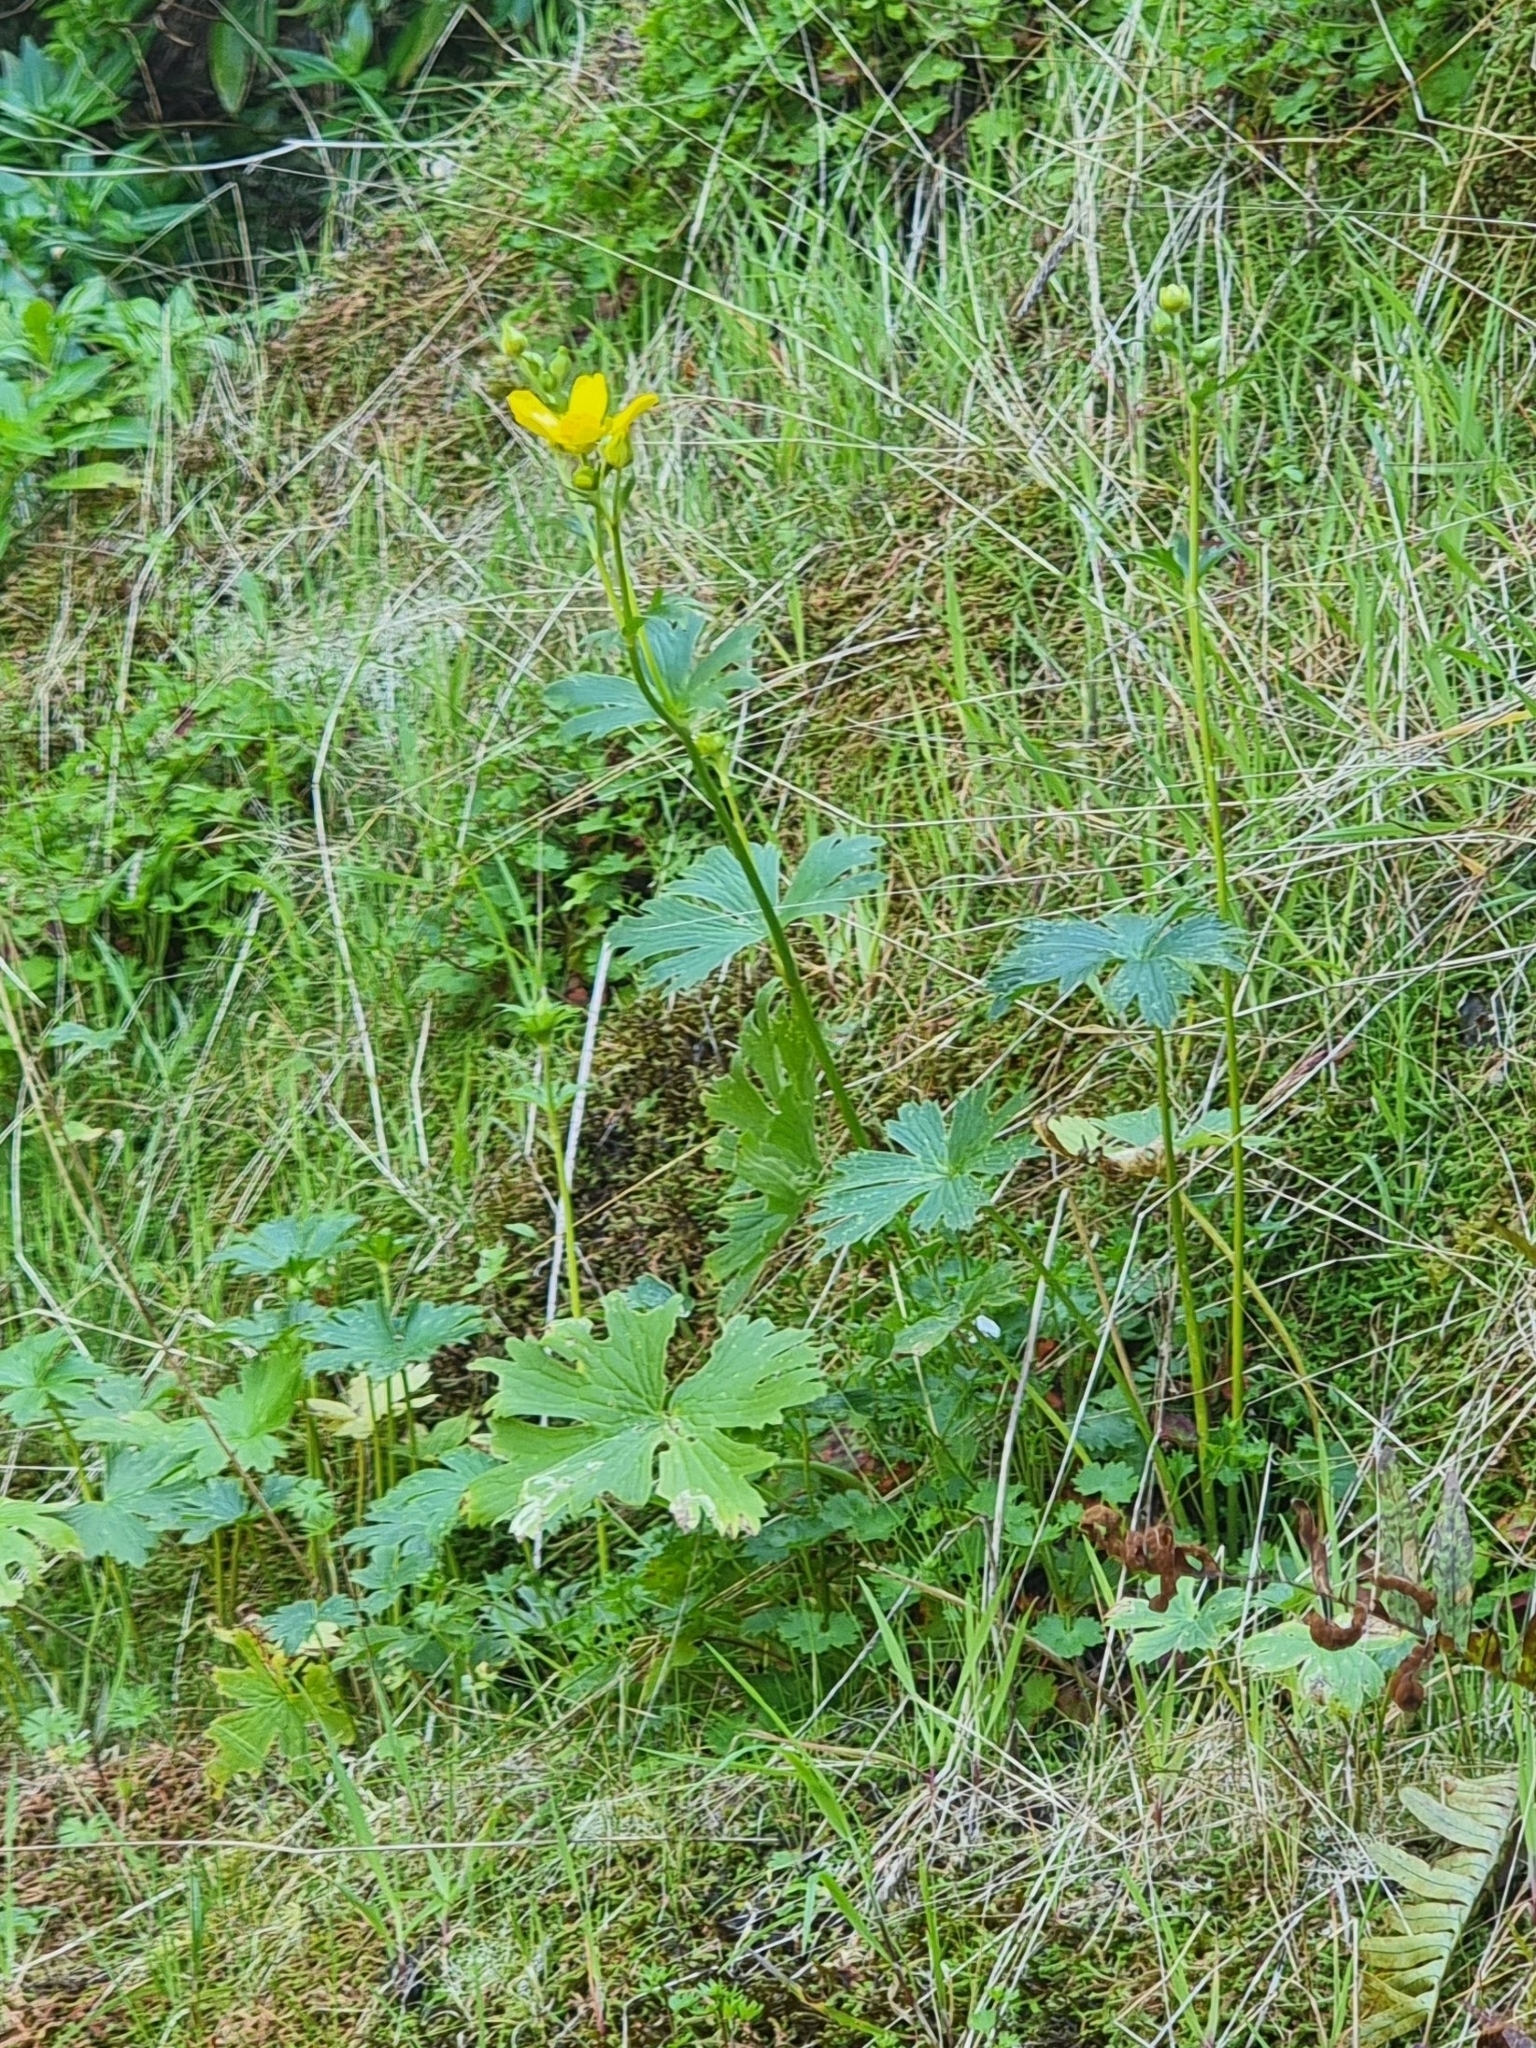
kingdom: Plantae
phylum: Tracheophyta
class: Magnoliopsida
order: Ranunculales
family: Ranunculaceae
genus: Ranunculus
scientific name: Ranunculus cortusifolius
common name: Azores buttercup
